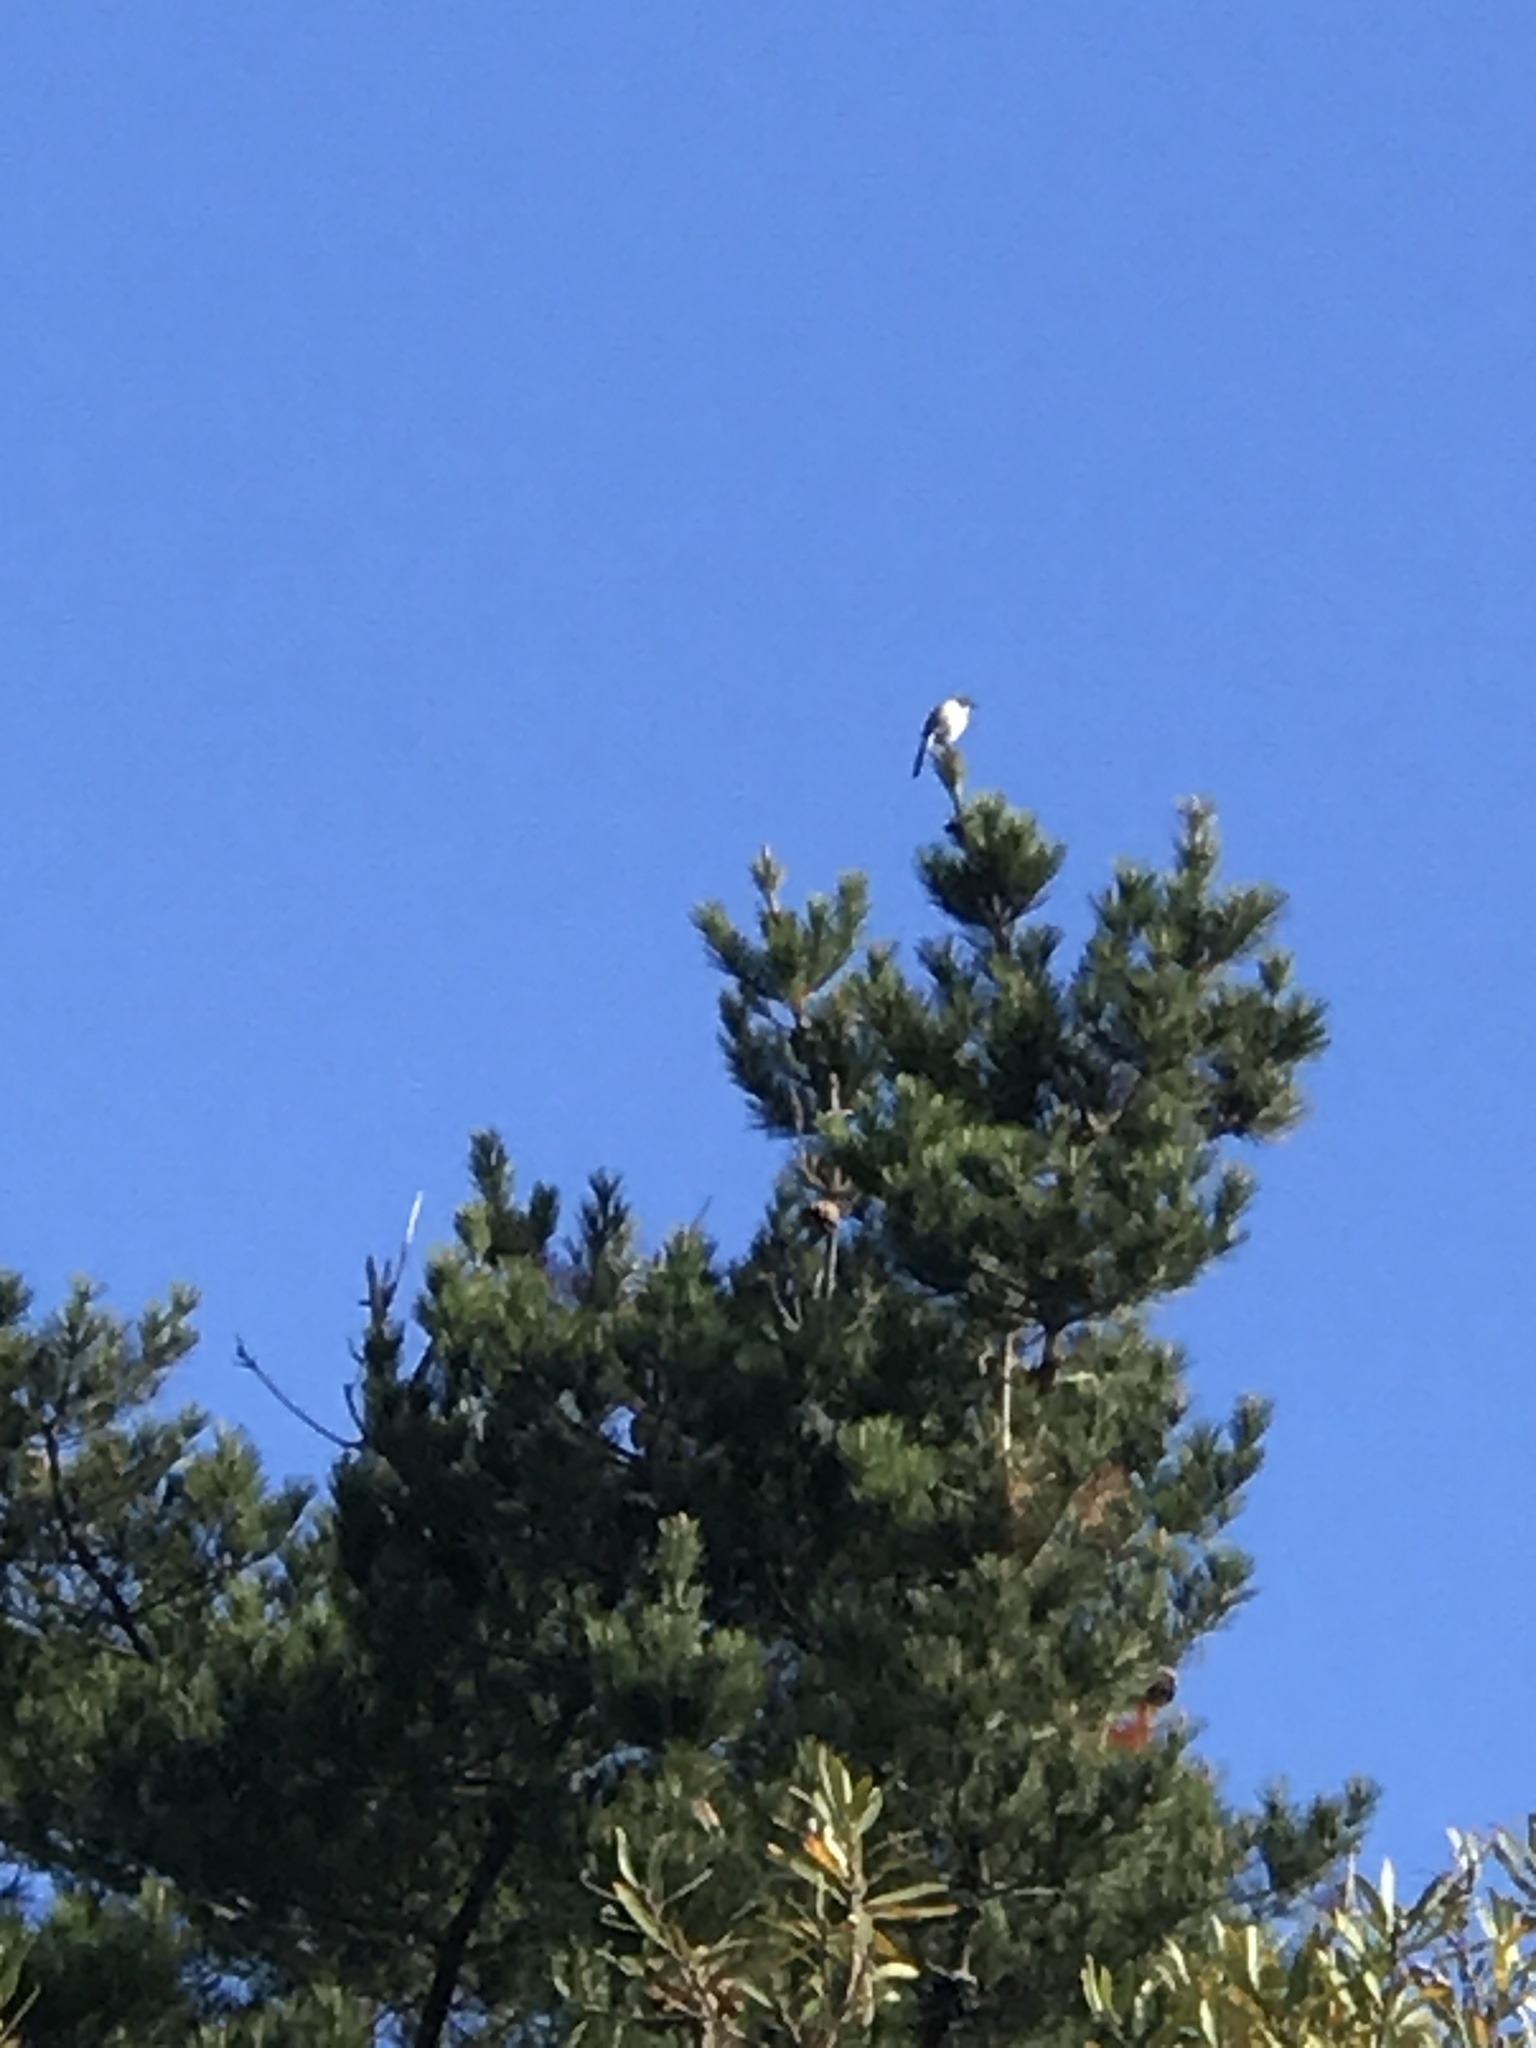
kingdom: Animalia
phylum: Chordata
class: Aves
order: Passeriformes
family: Corvidae
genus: Aphelocoma
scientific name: Aphelocoma californica
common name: California scrub-jay
